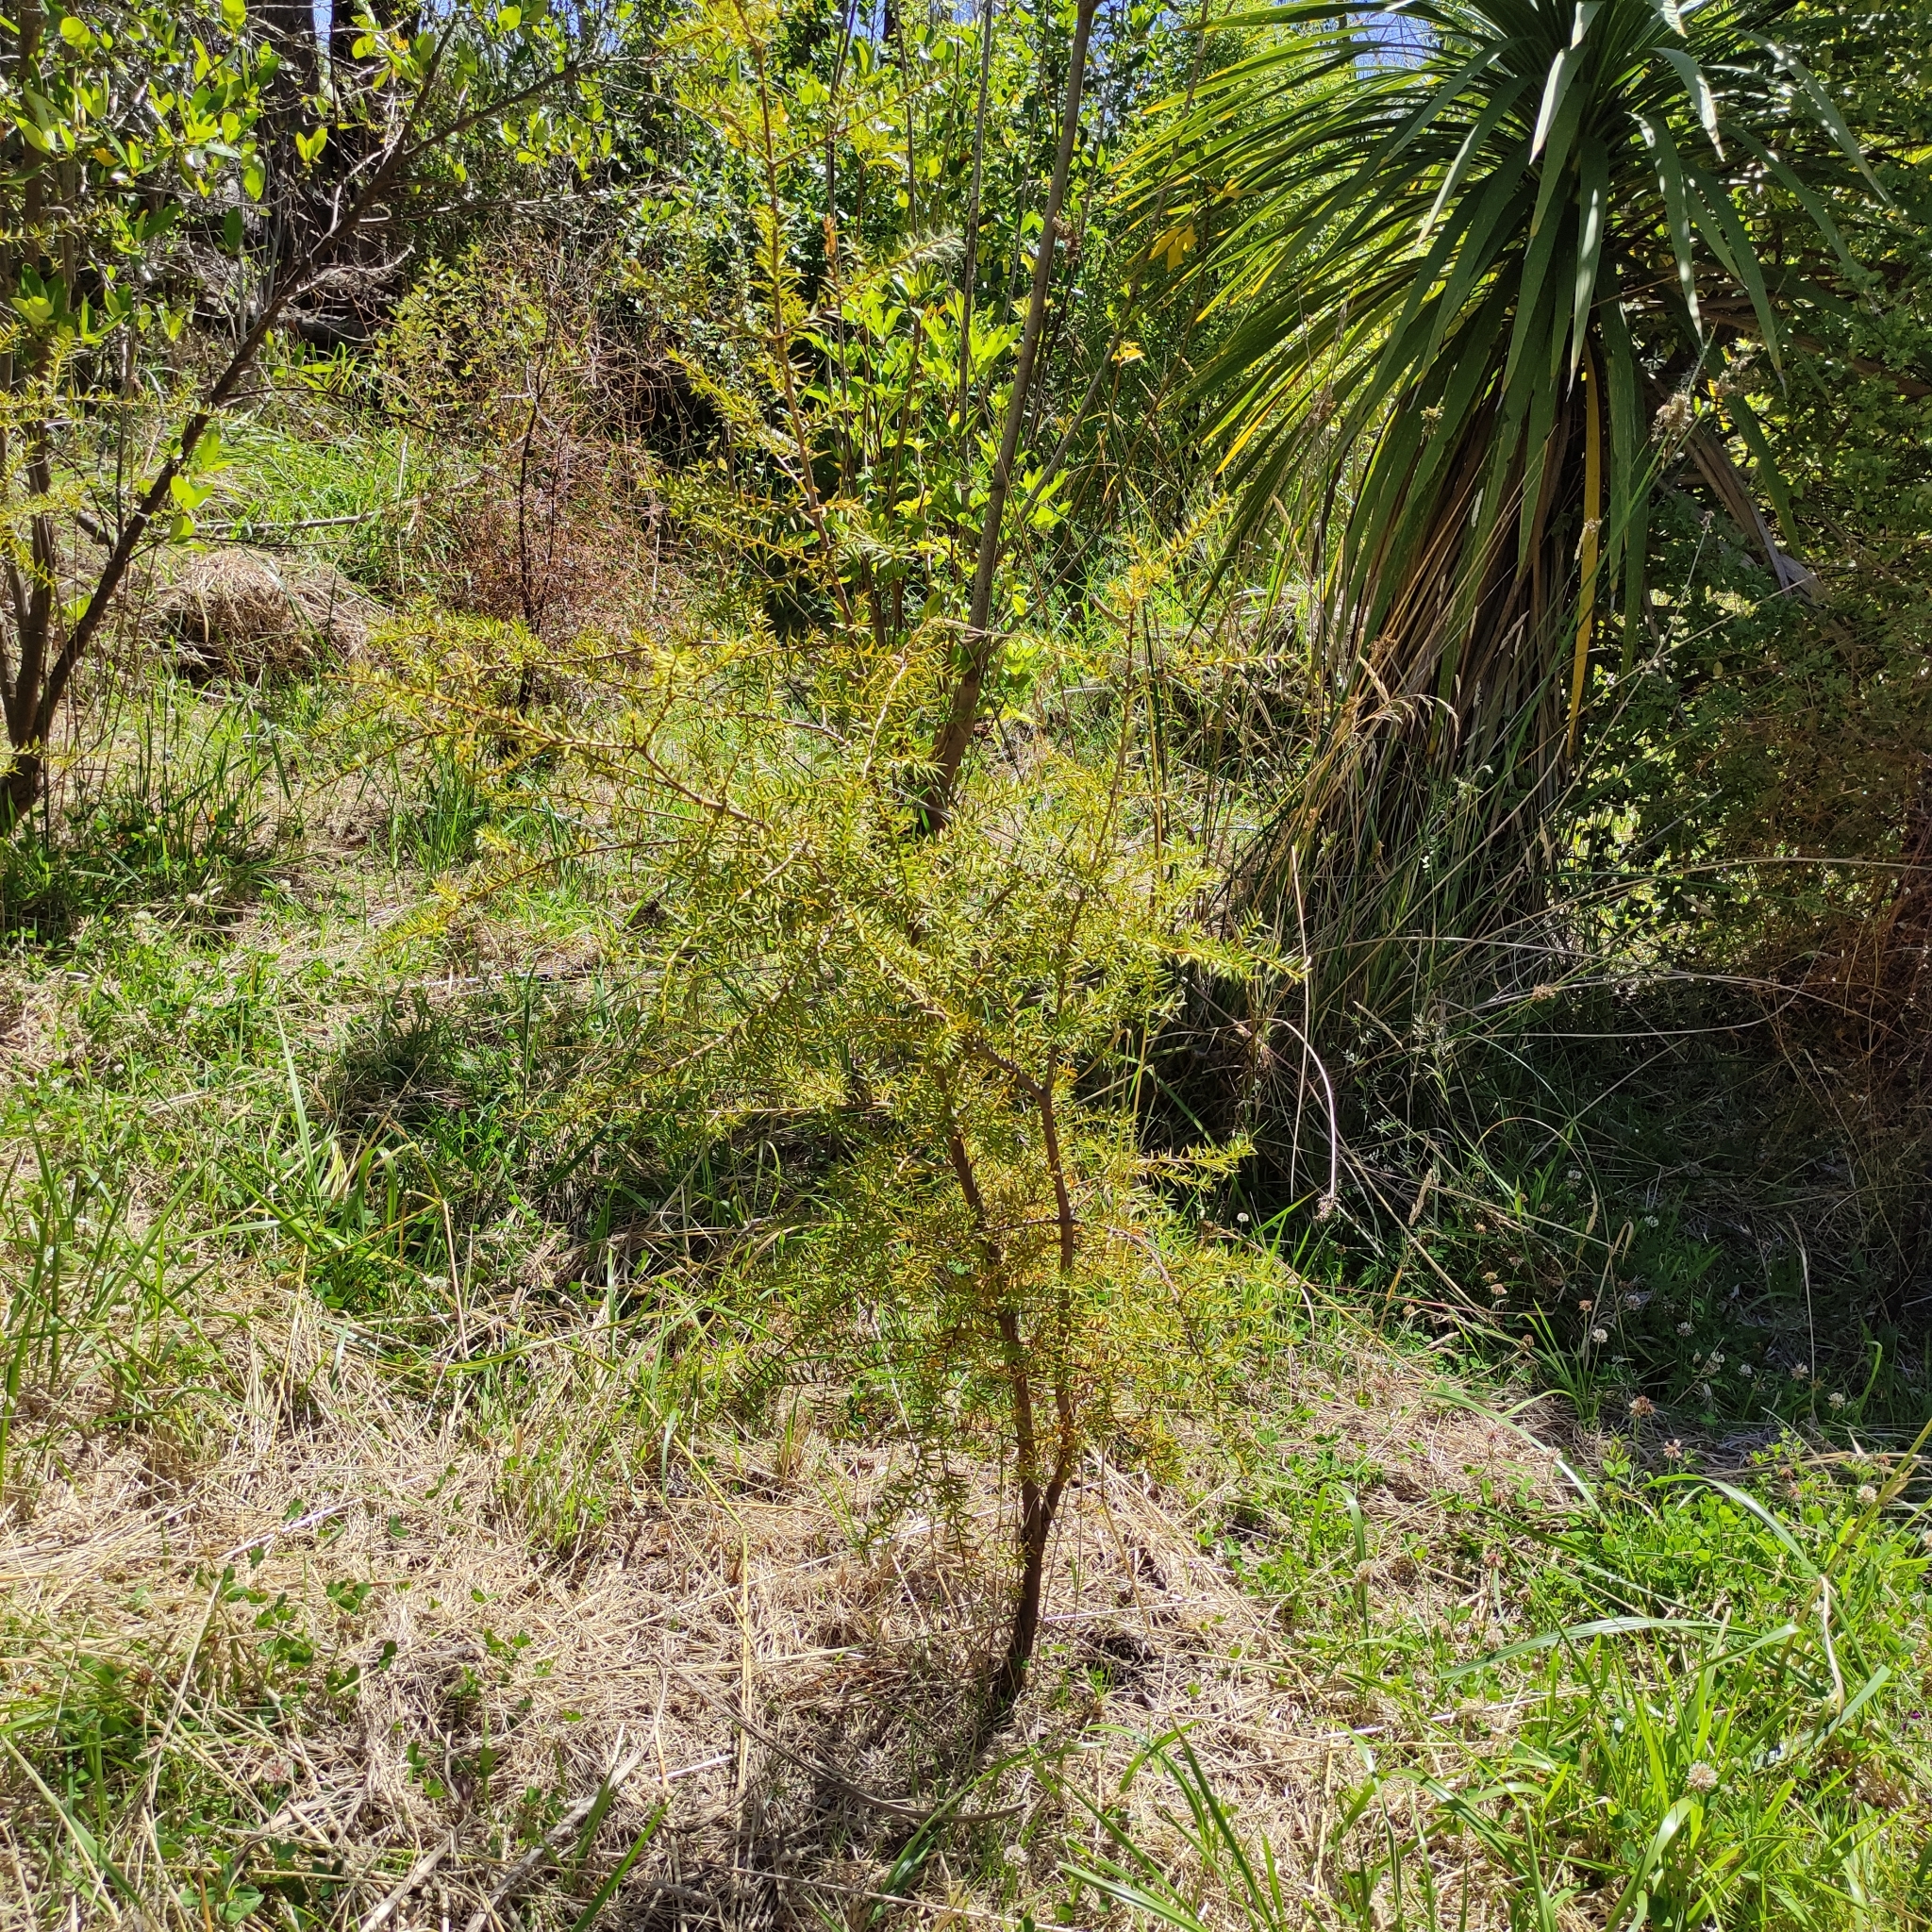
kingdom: Plantae
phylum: Tracheophyta
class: Pinopsida
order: Pinales
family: Podocarpaceae
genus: Podocarpus
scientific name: Podocarpus totara
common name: Totara
